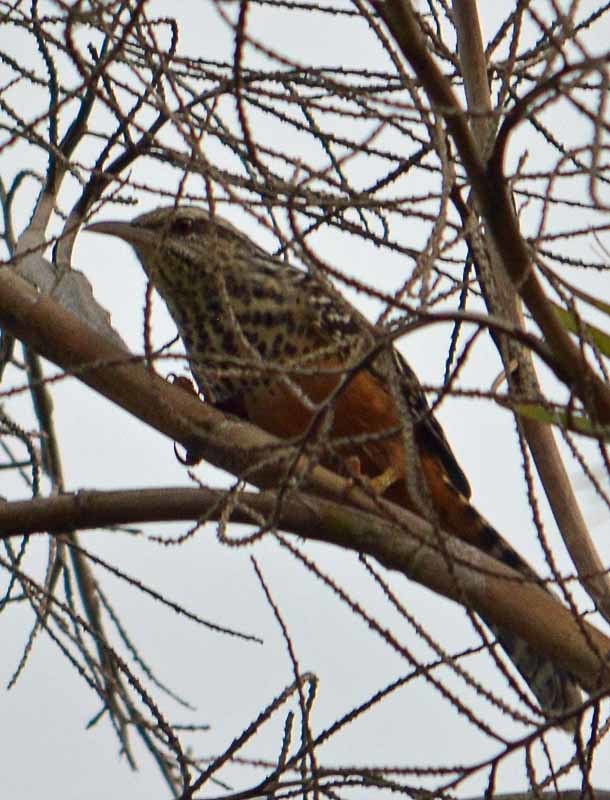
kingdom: Animalia
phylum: Chordata
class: Aves
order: Passeriformes
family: Troglodytidae
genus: Campylorhynchus
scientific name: Campylorhynchus zonatus
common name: Band-backed wren
